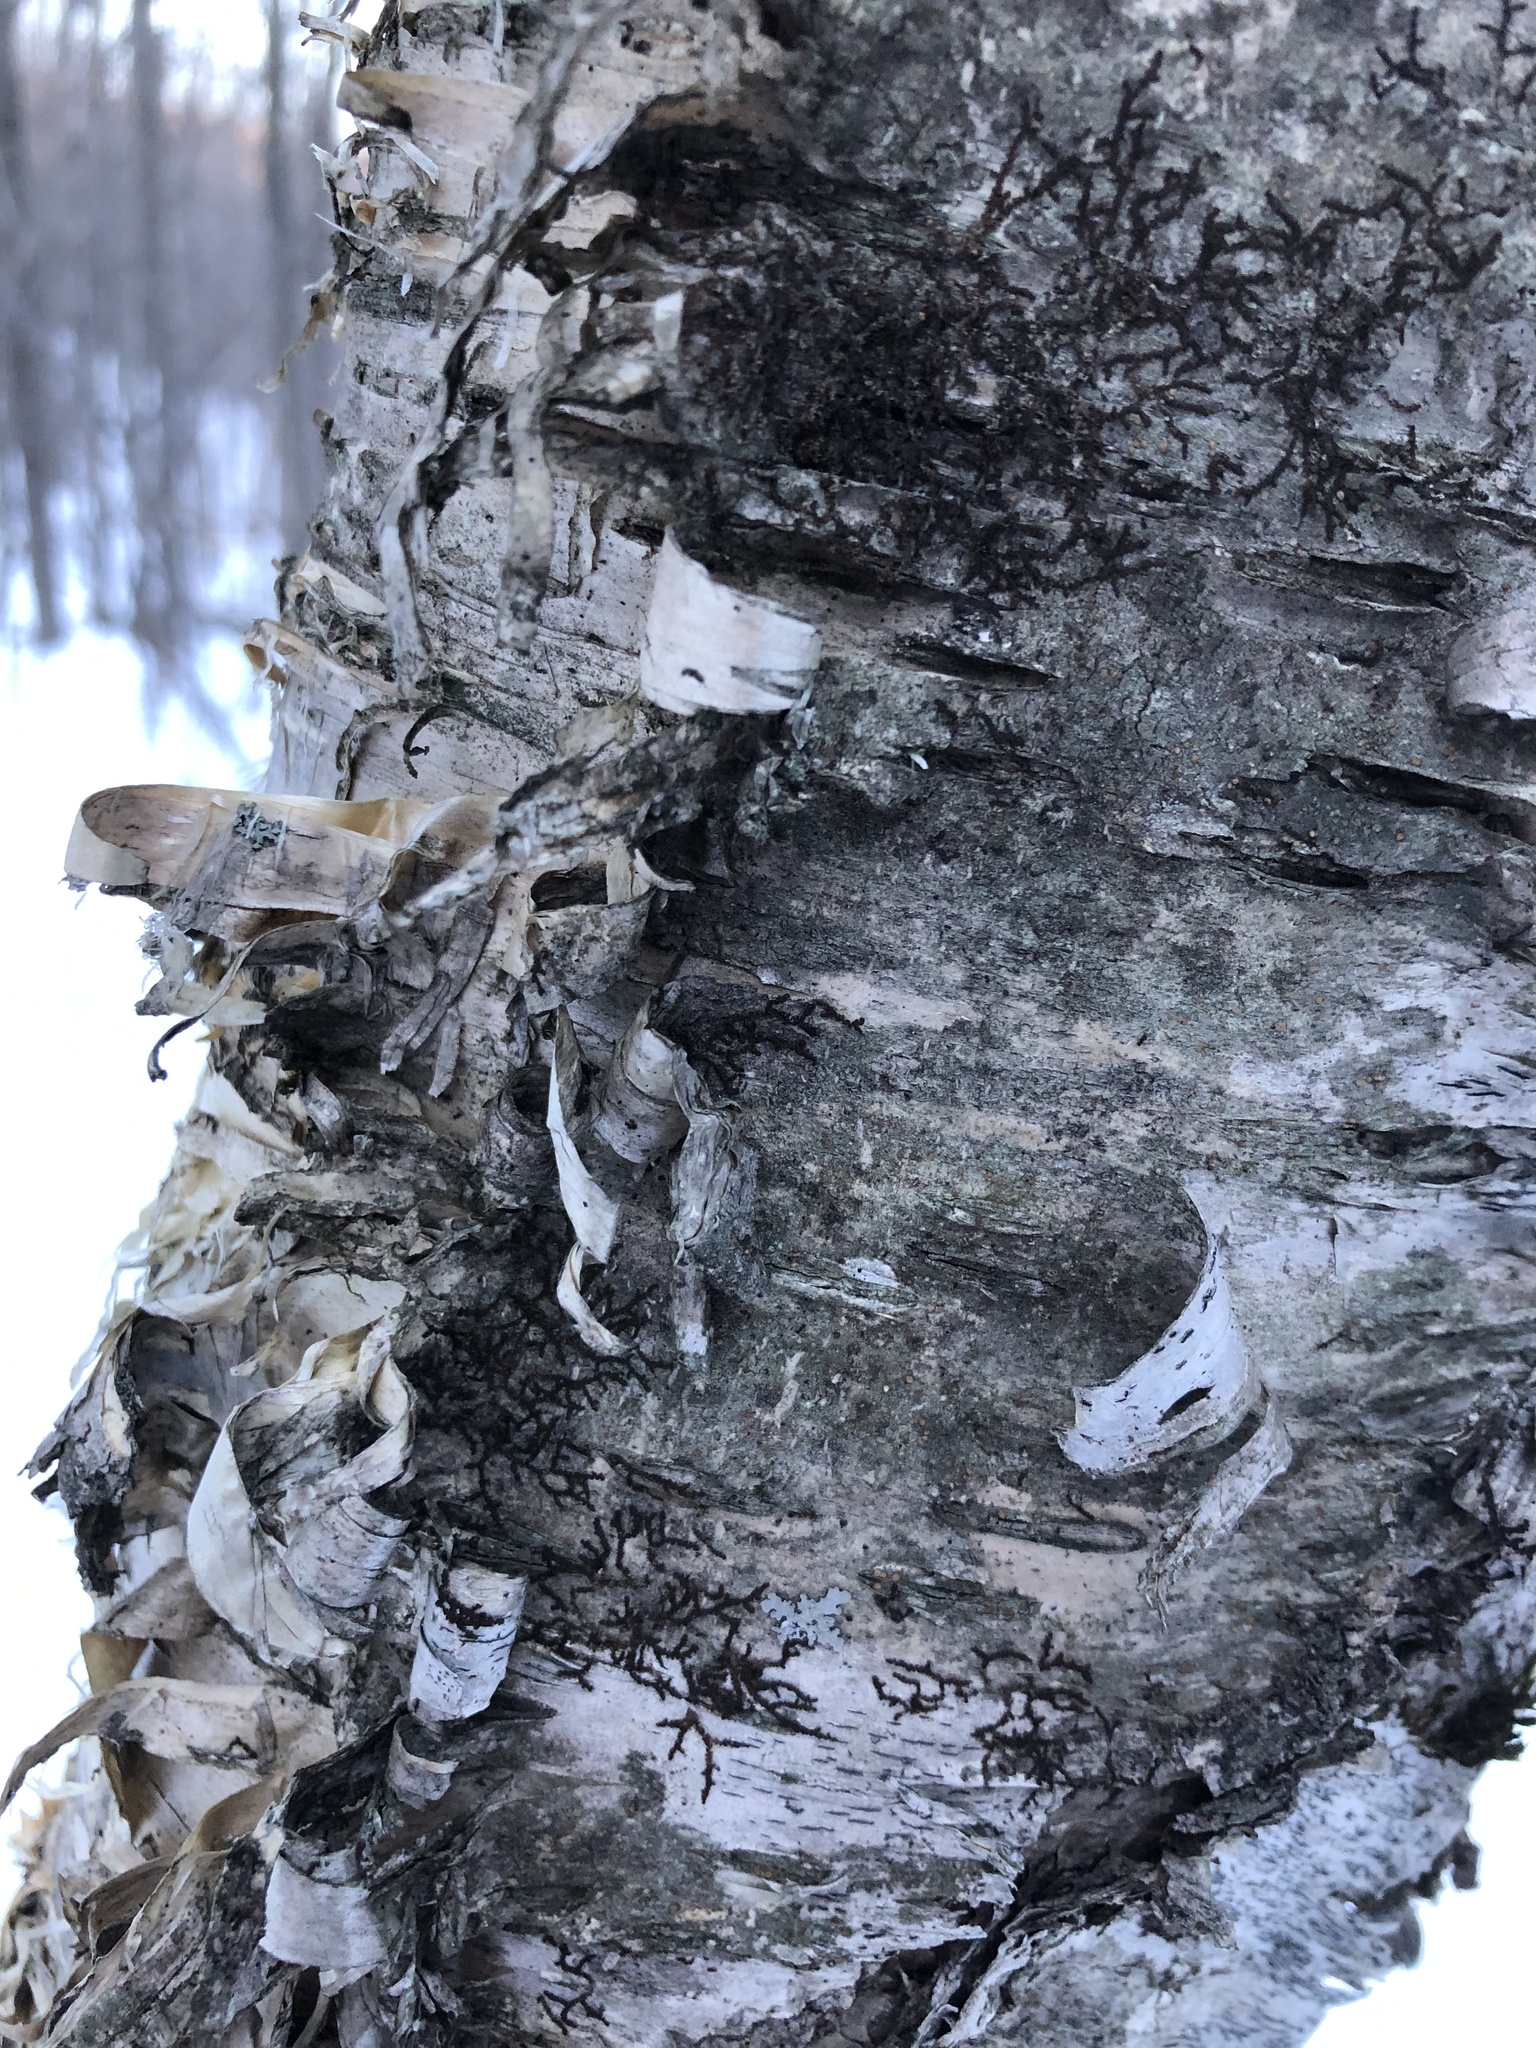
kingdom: Plantae
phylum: Tracheophyta
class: Magnoliopsida
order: Fagales
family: Betulaceae
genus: Betula
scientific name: Betula papyrifera
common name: Paper birch
